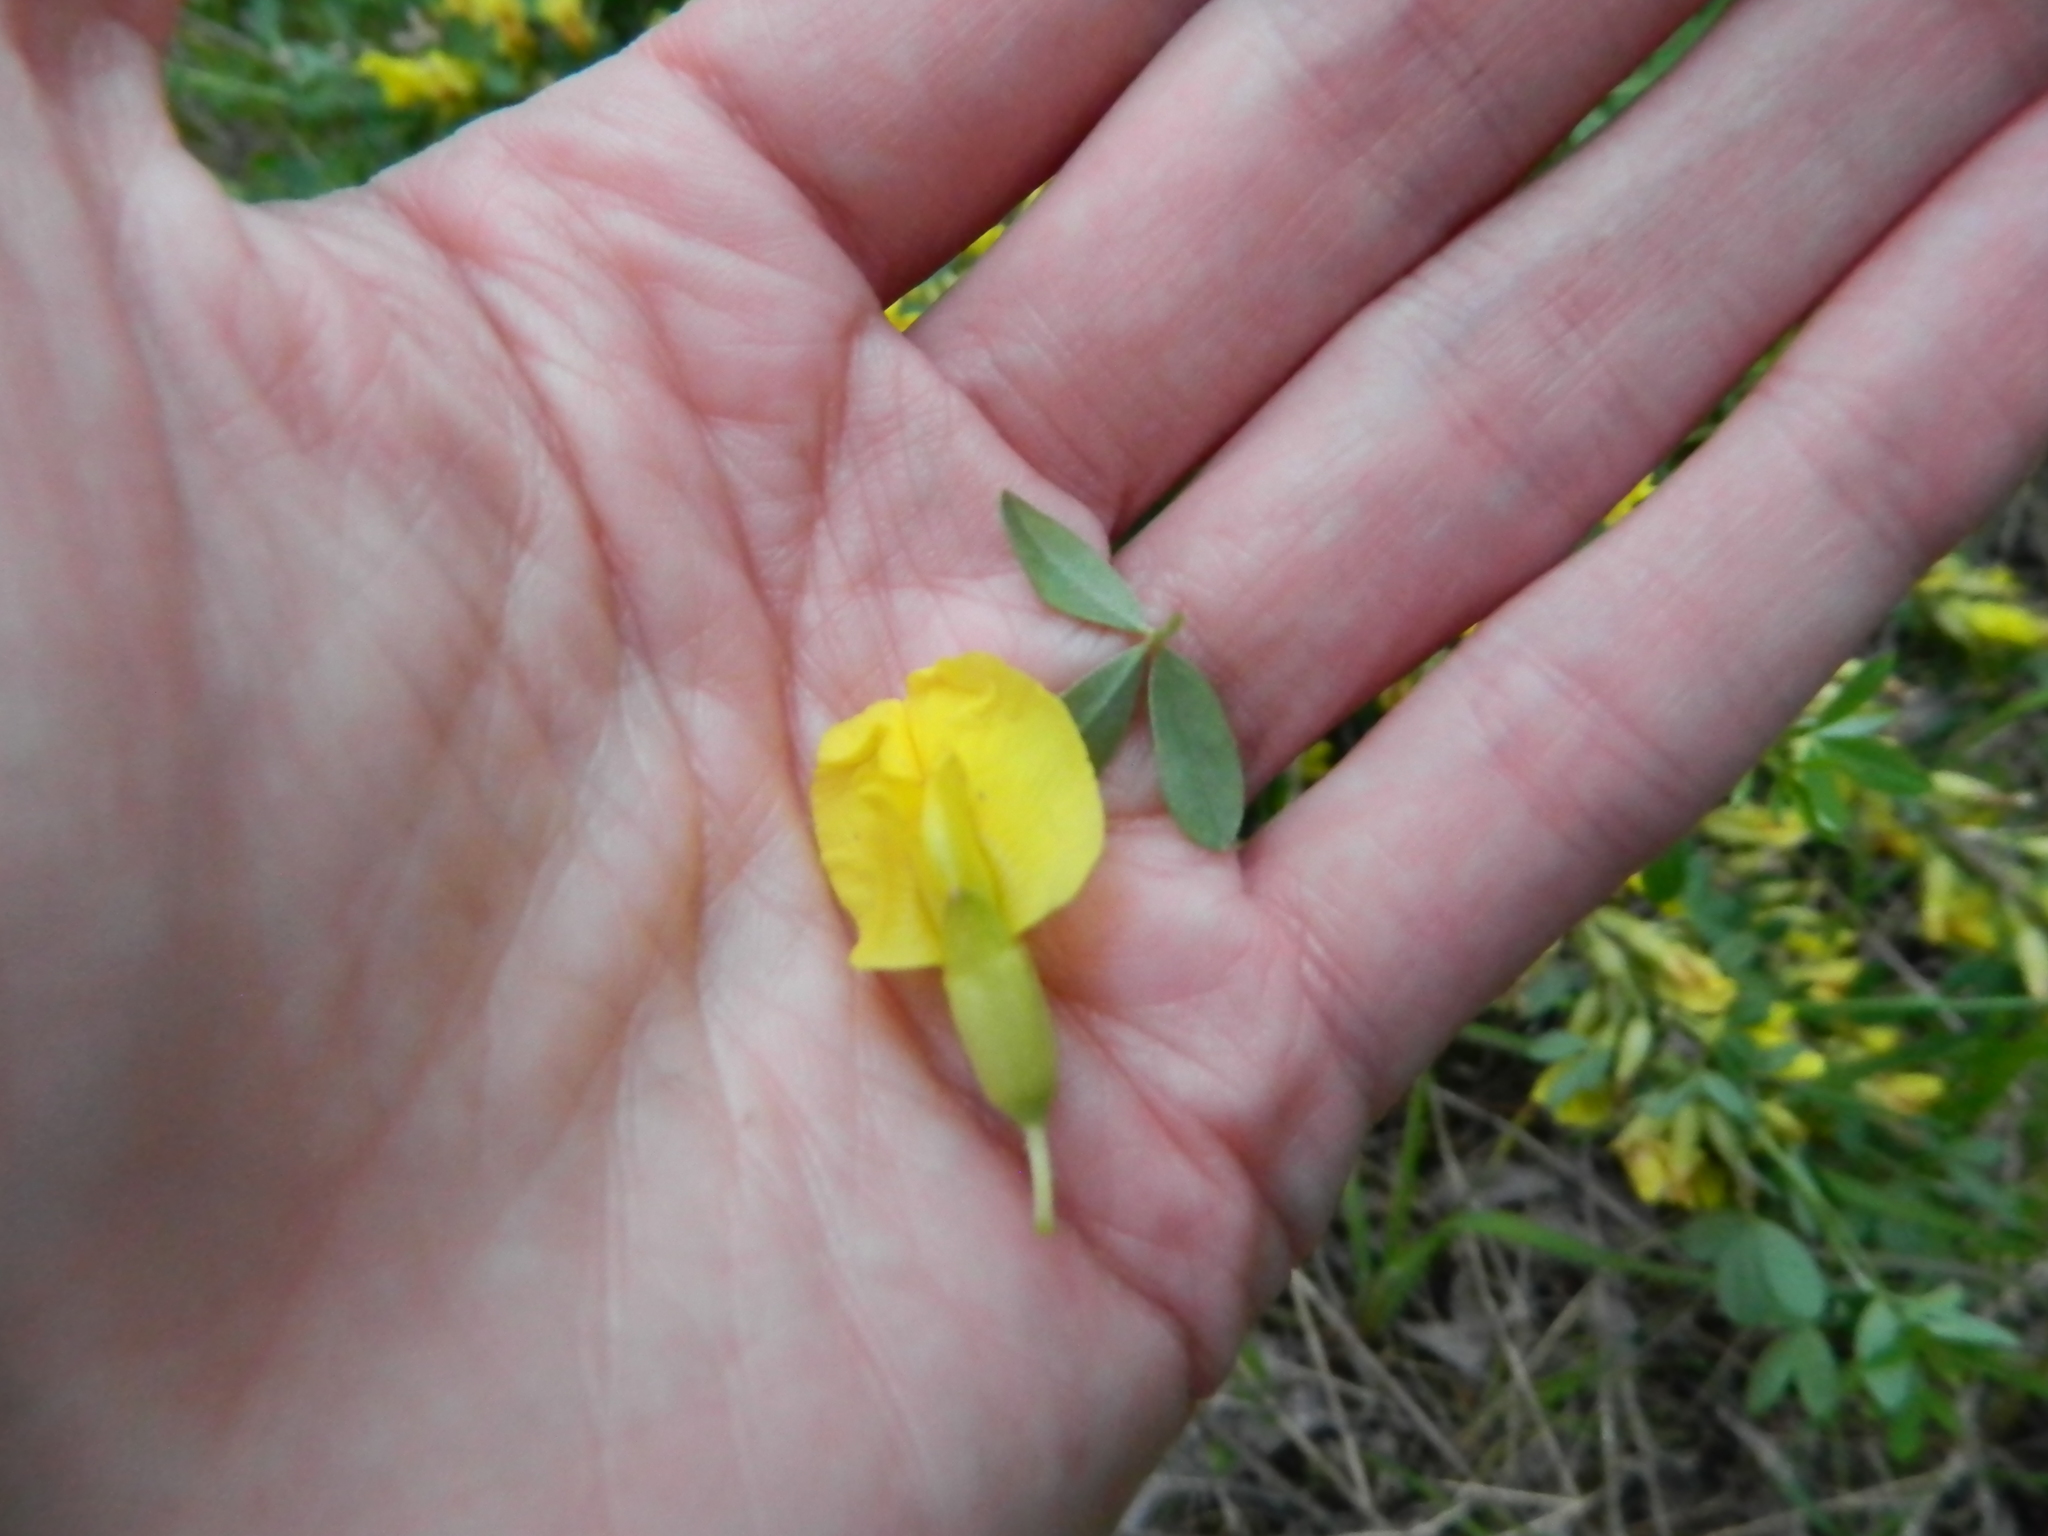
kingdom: Plantae
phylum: Tracheophyta
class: Magnoliopsida
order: Fabales
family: Fabaceae
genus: Chamaecytisus
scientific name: Chamaecytisus ruthenicus
